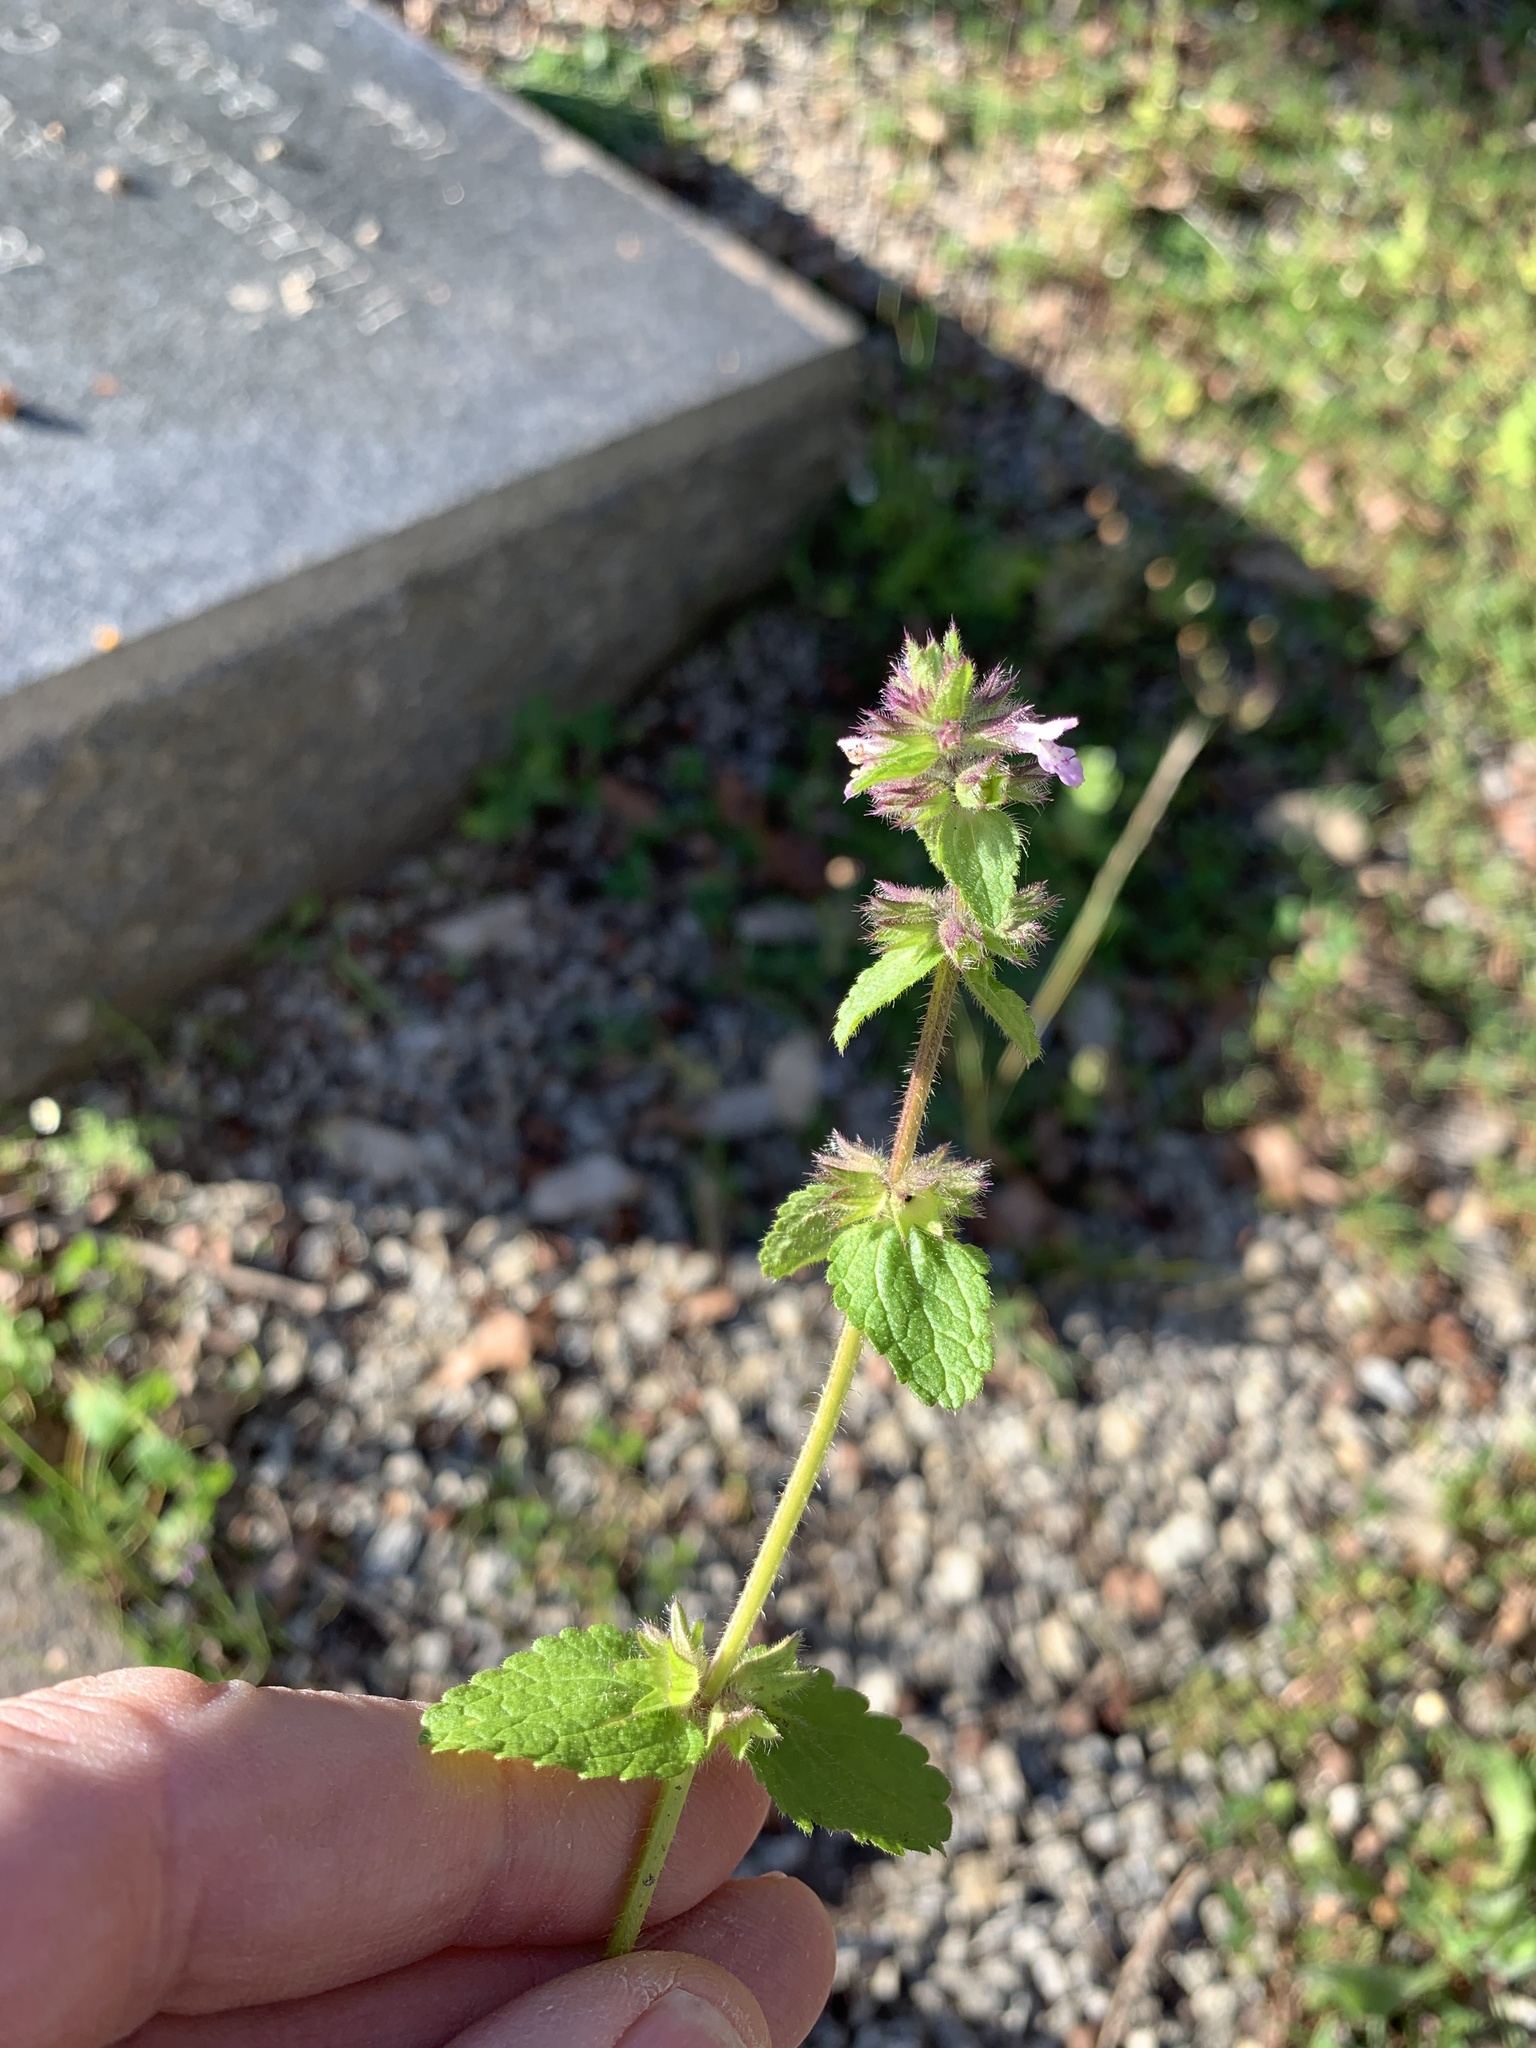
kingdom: Plantae
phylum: Tracheophyta
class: Magnoliopsida
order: Lamiales
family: Lamiaceae
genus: Stachys
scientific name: Stachys arvensis
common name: Field woundwort
